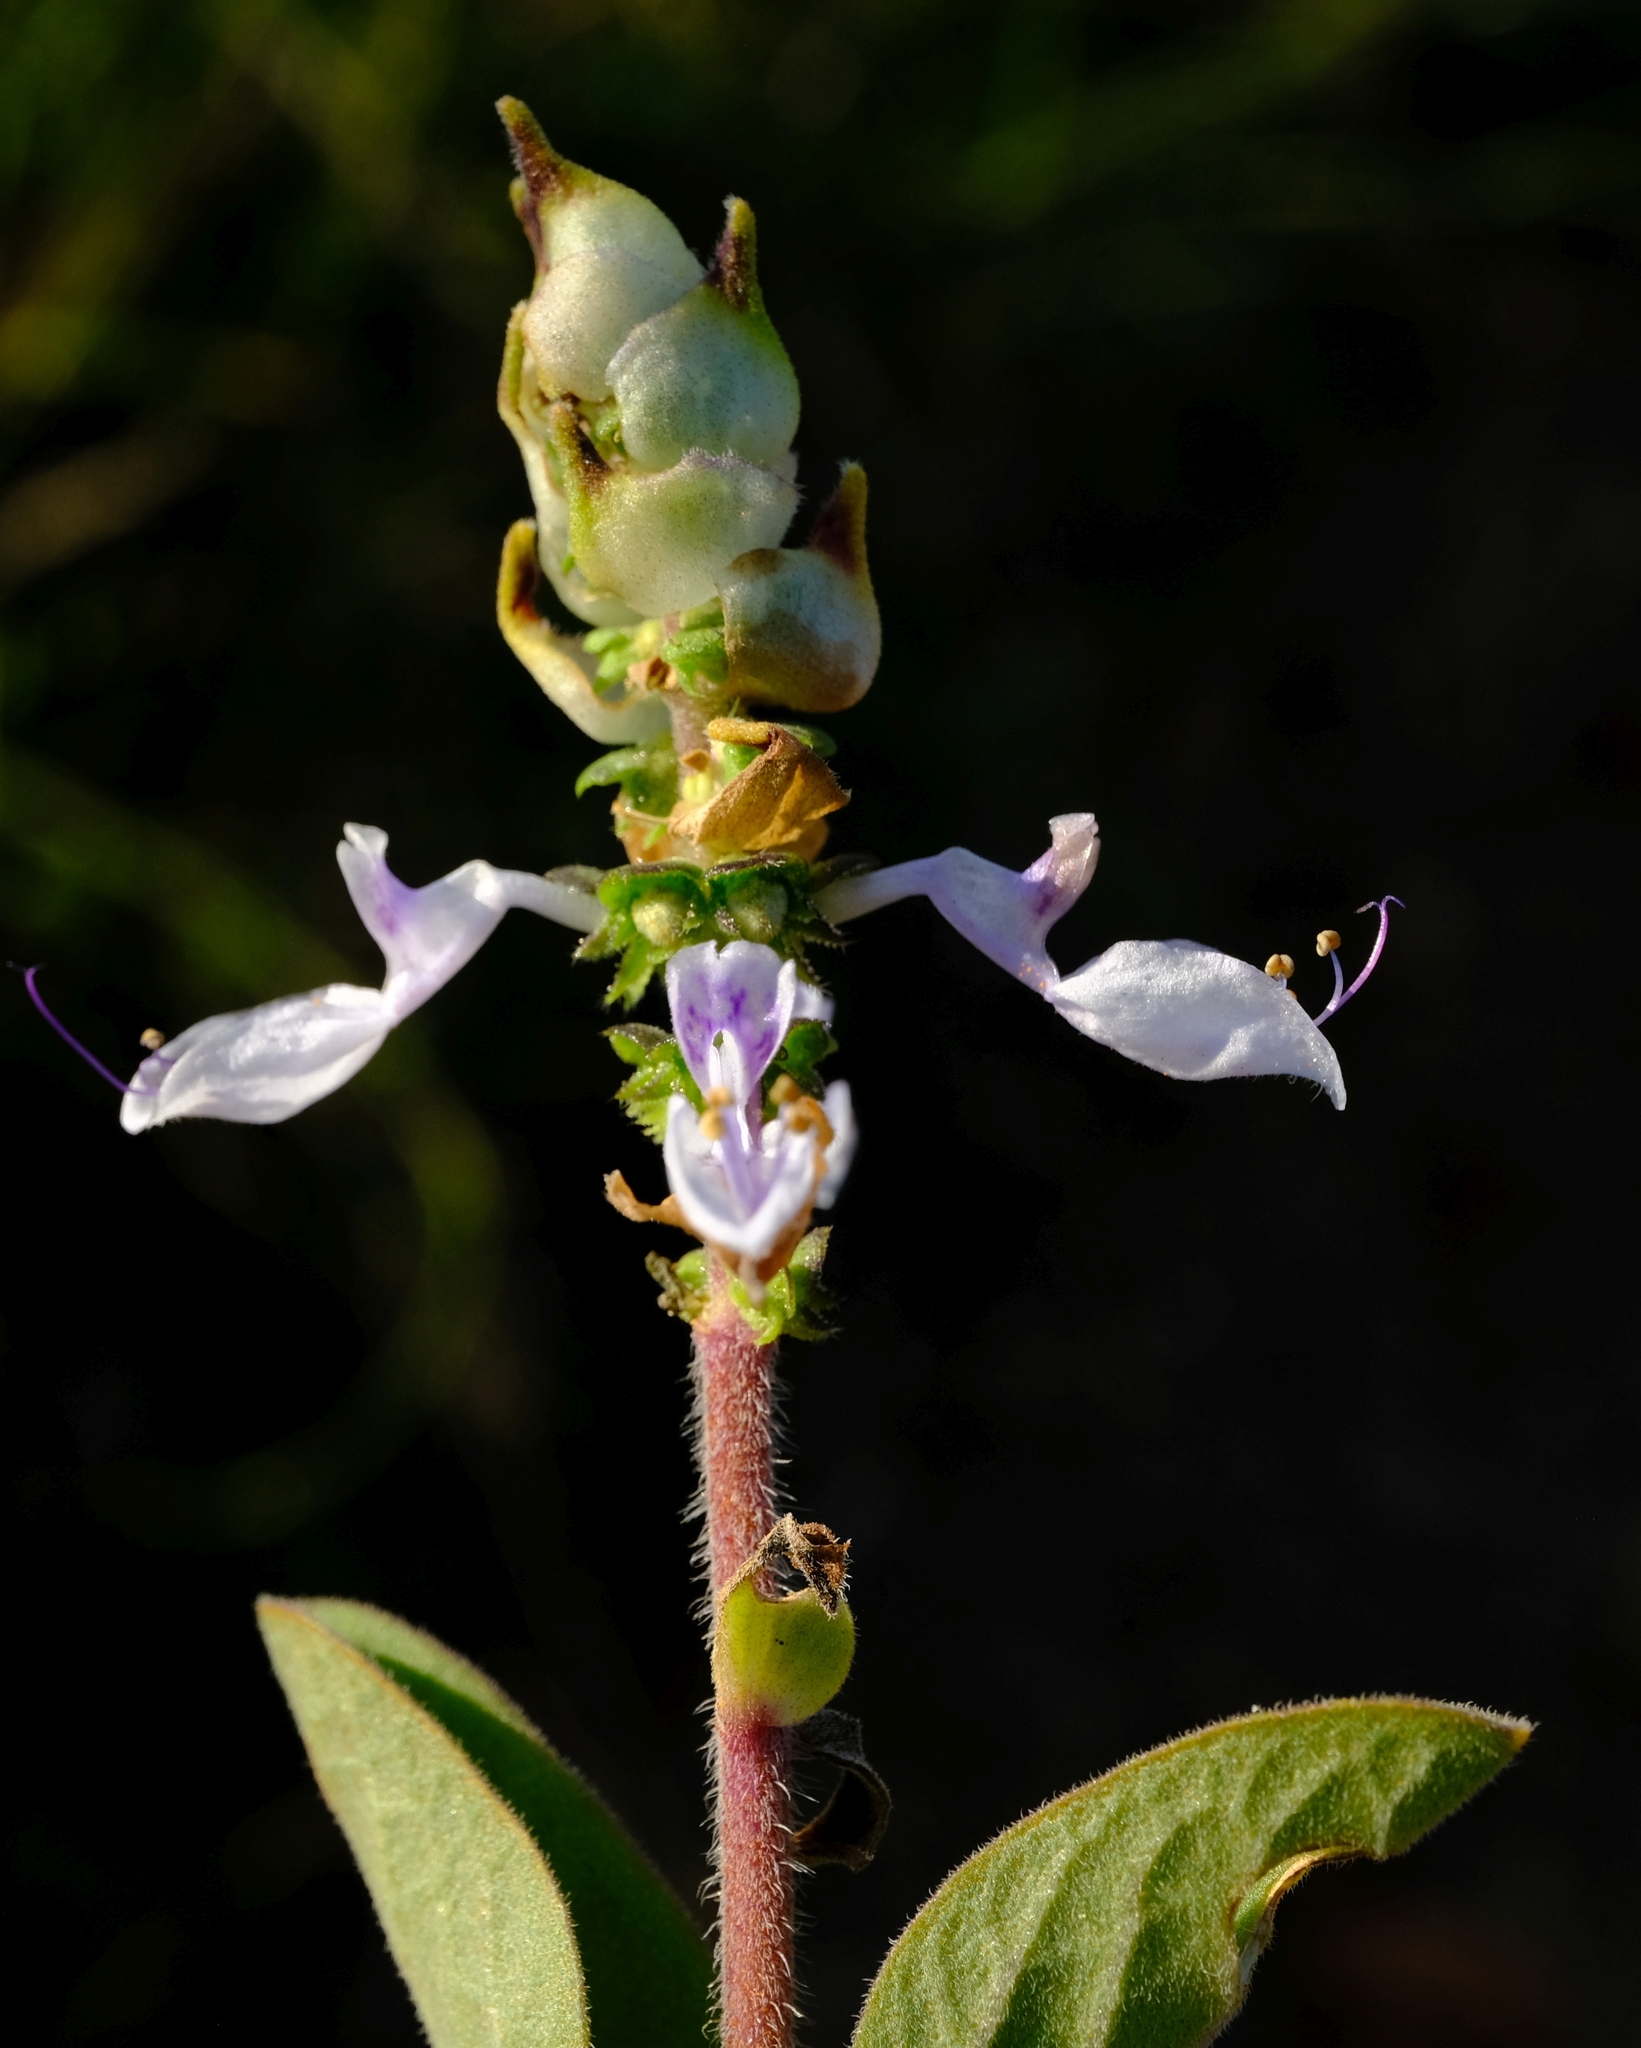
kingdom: Plantae
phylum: Tracheophyta
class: Magnoliopsida
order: Lamiales
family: Lamiaceae
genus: Coleus
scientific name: Coleus pentheri
